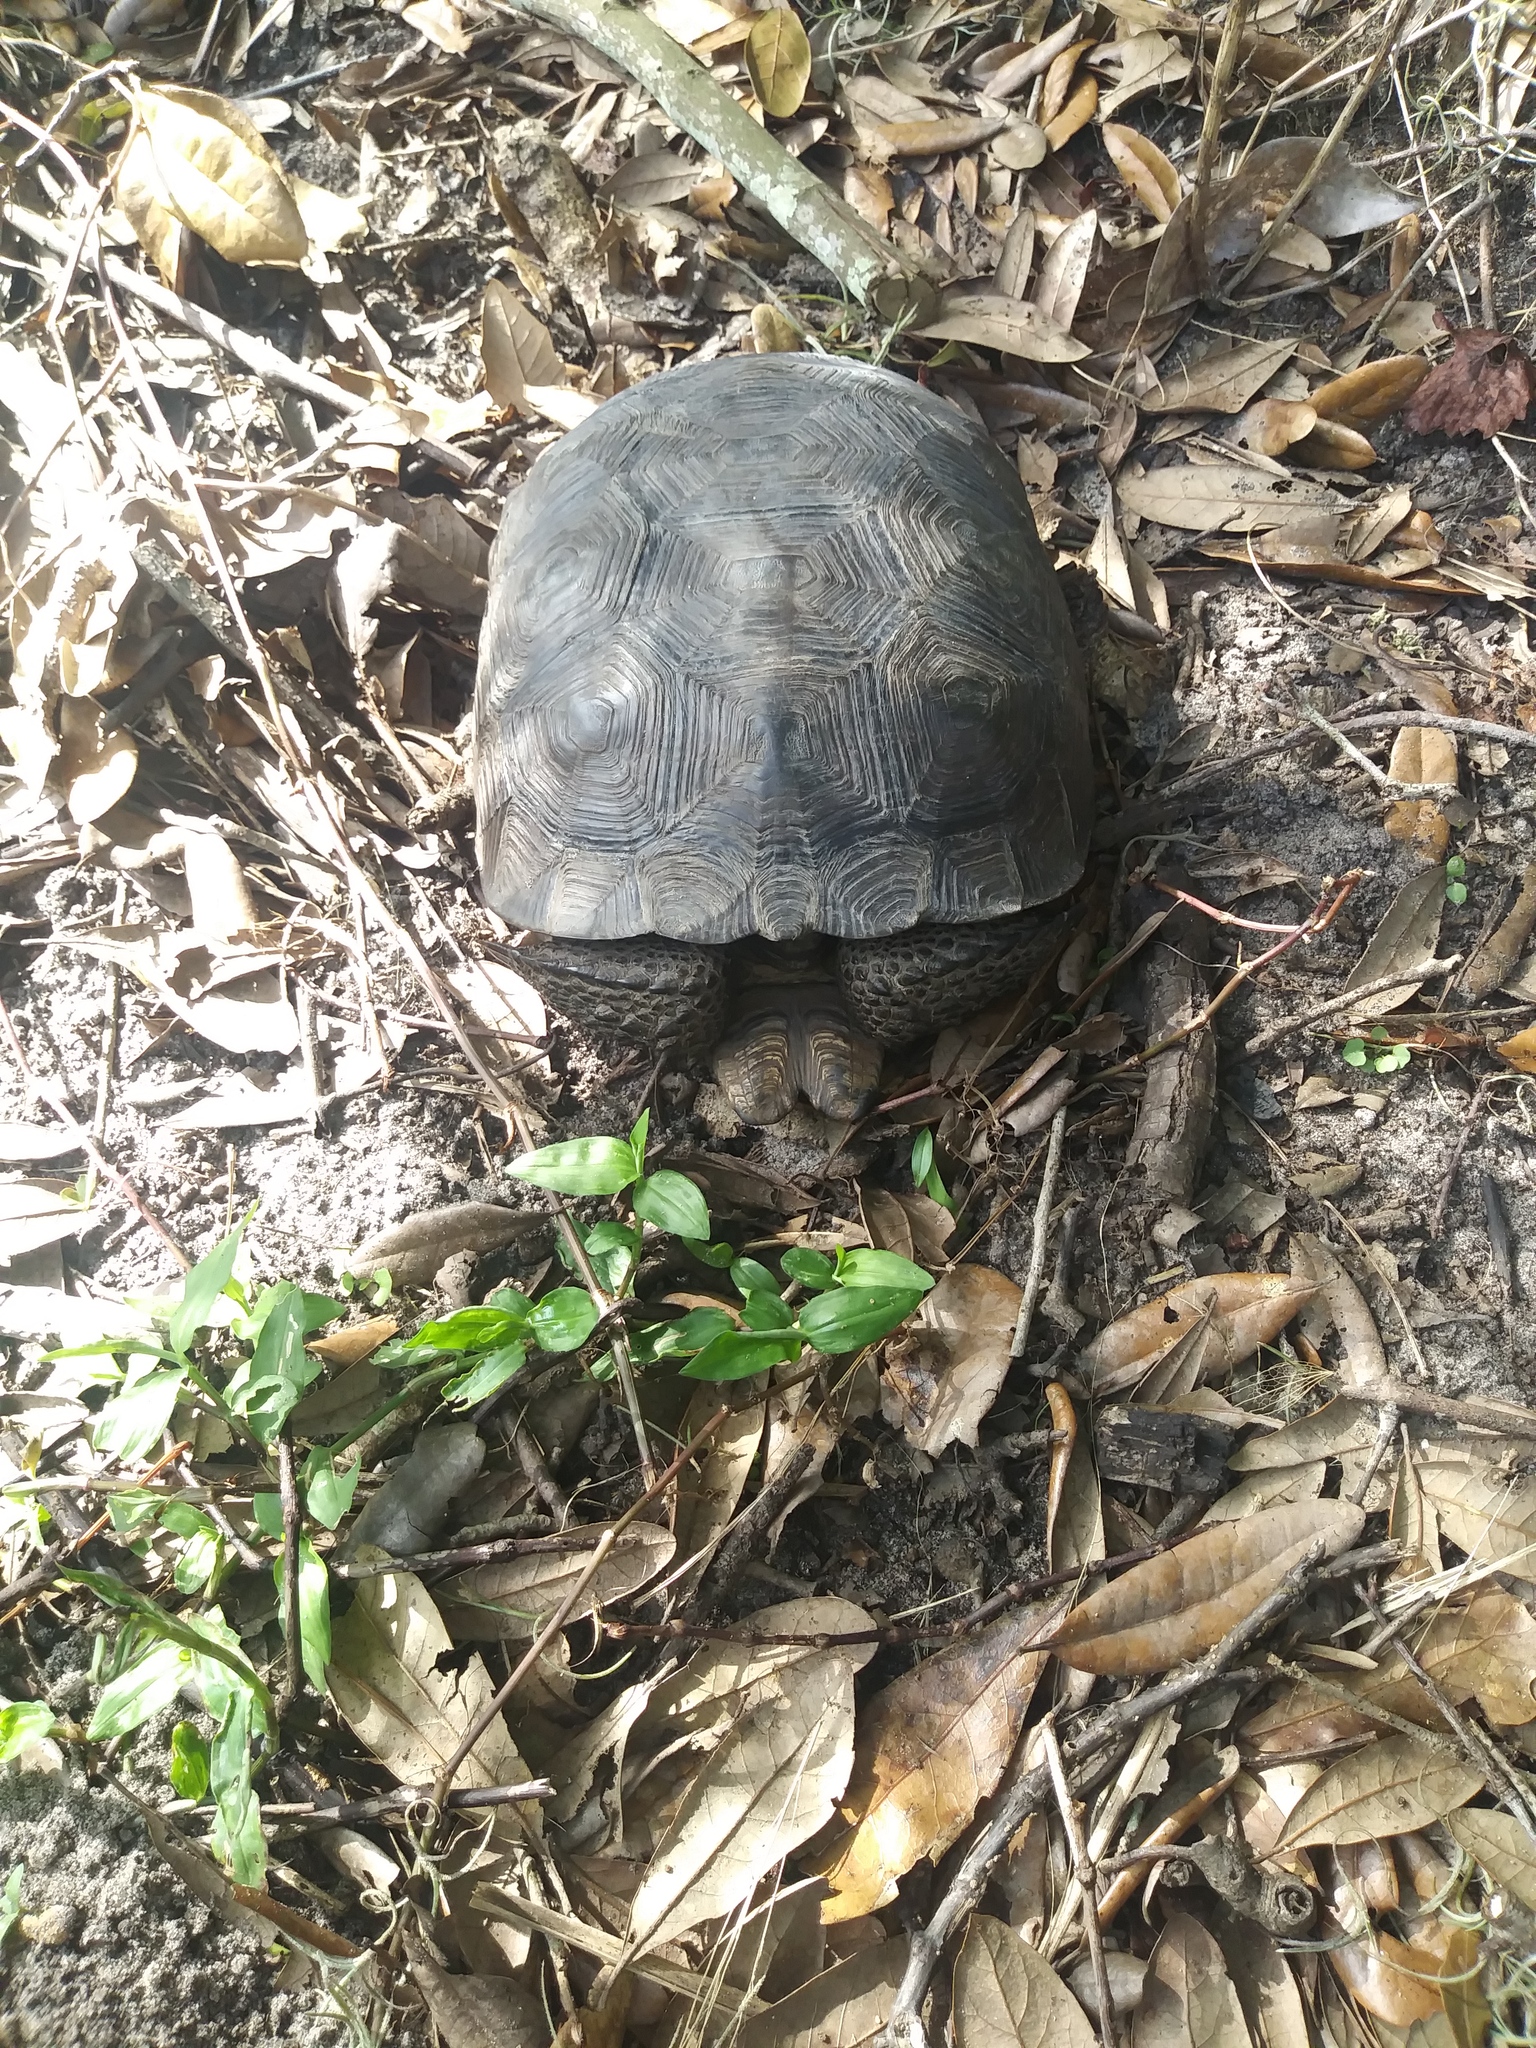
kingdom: Animalia
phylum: Chordata
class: Testudines
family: Testudinidae
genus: Gopherus
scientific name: Gopherus polyphemus
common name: Florida gopher tortoise
